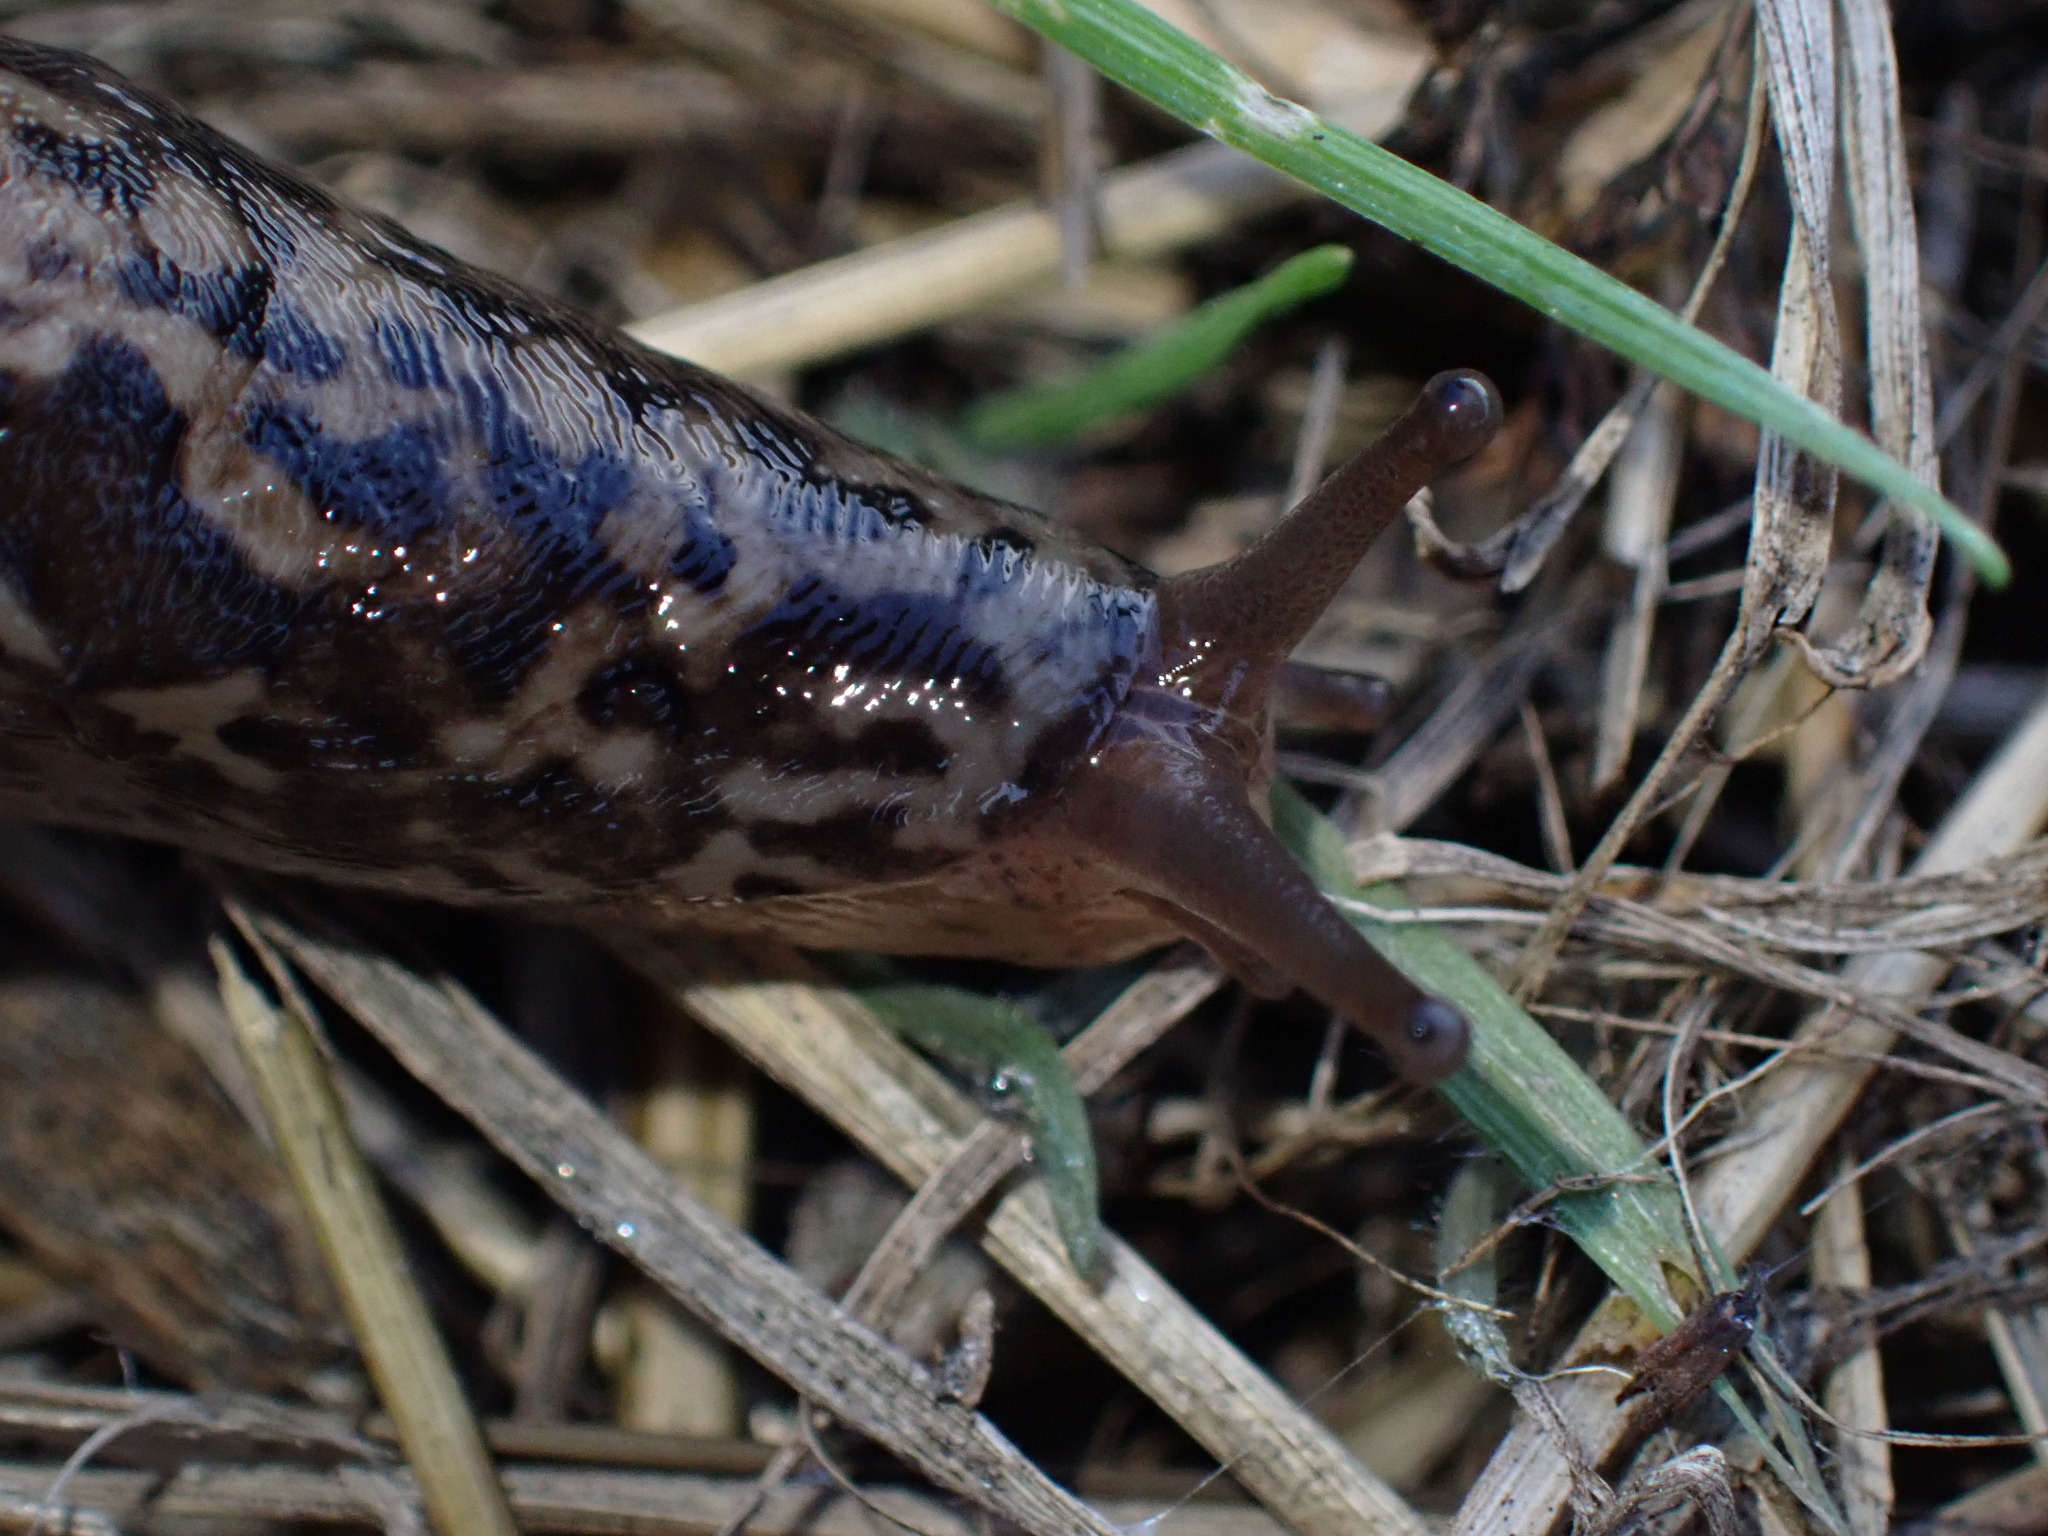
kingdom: Animalia
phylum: Mollusca
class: Gastropoda
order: Stylommatophora
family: Limacidae
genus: Limax
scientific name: Limax maximus
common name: Great grey slug
